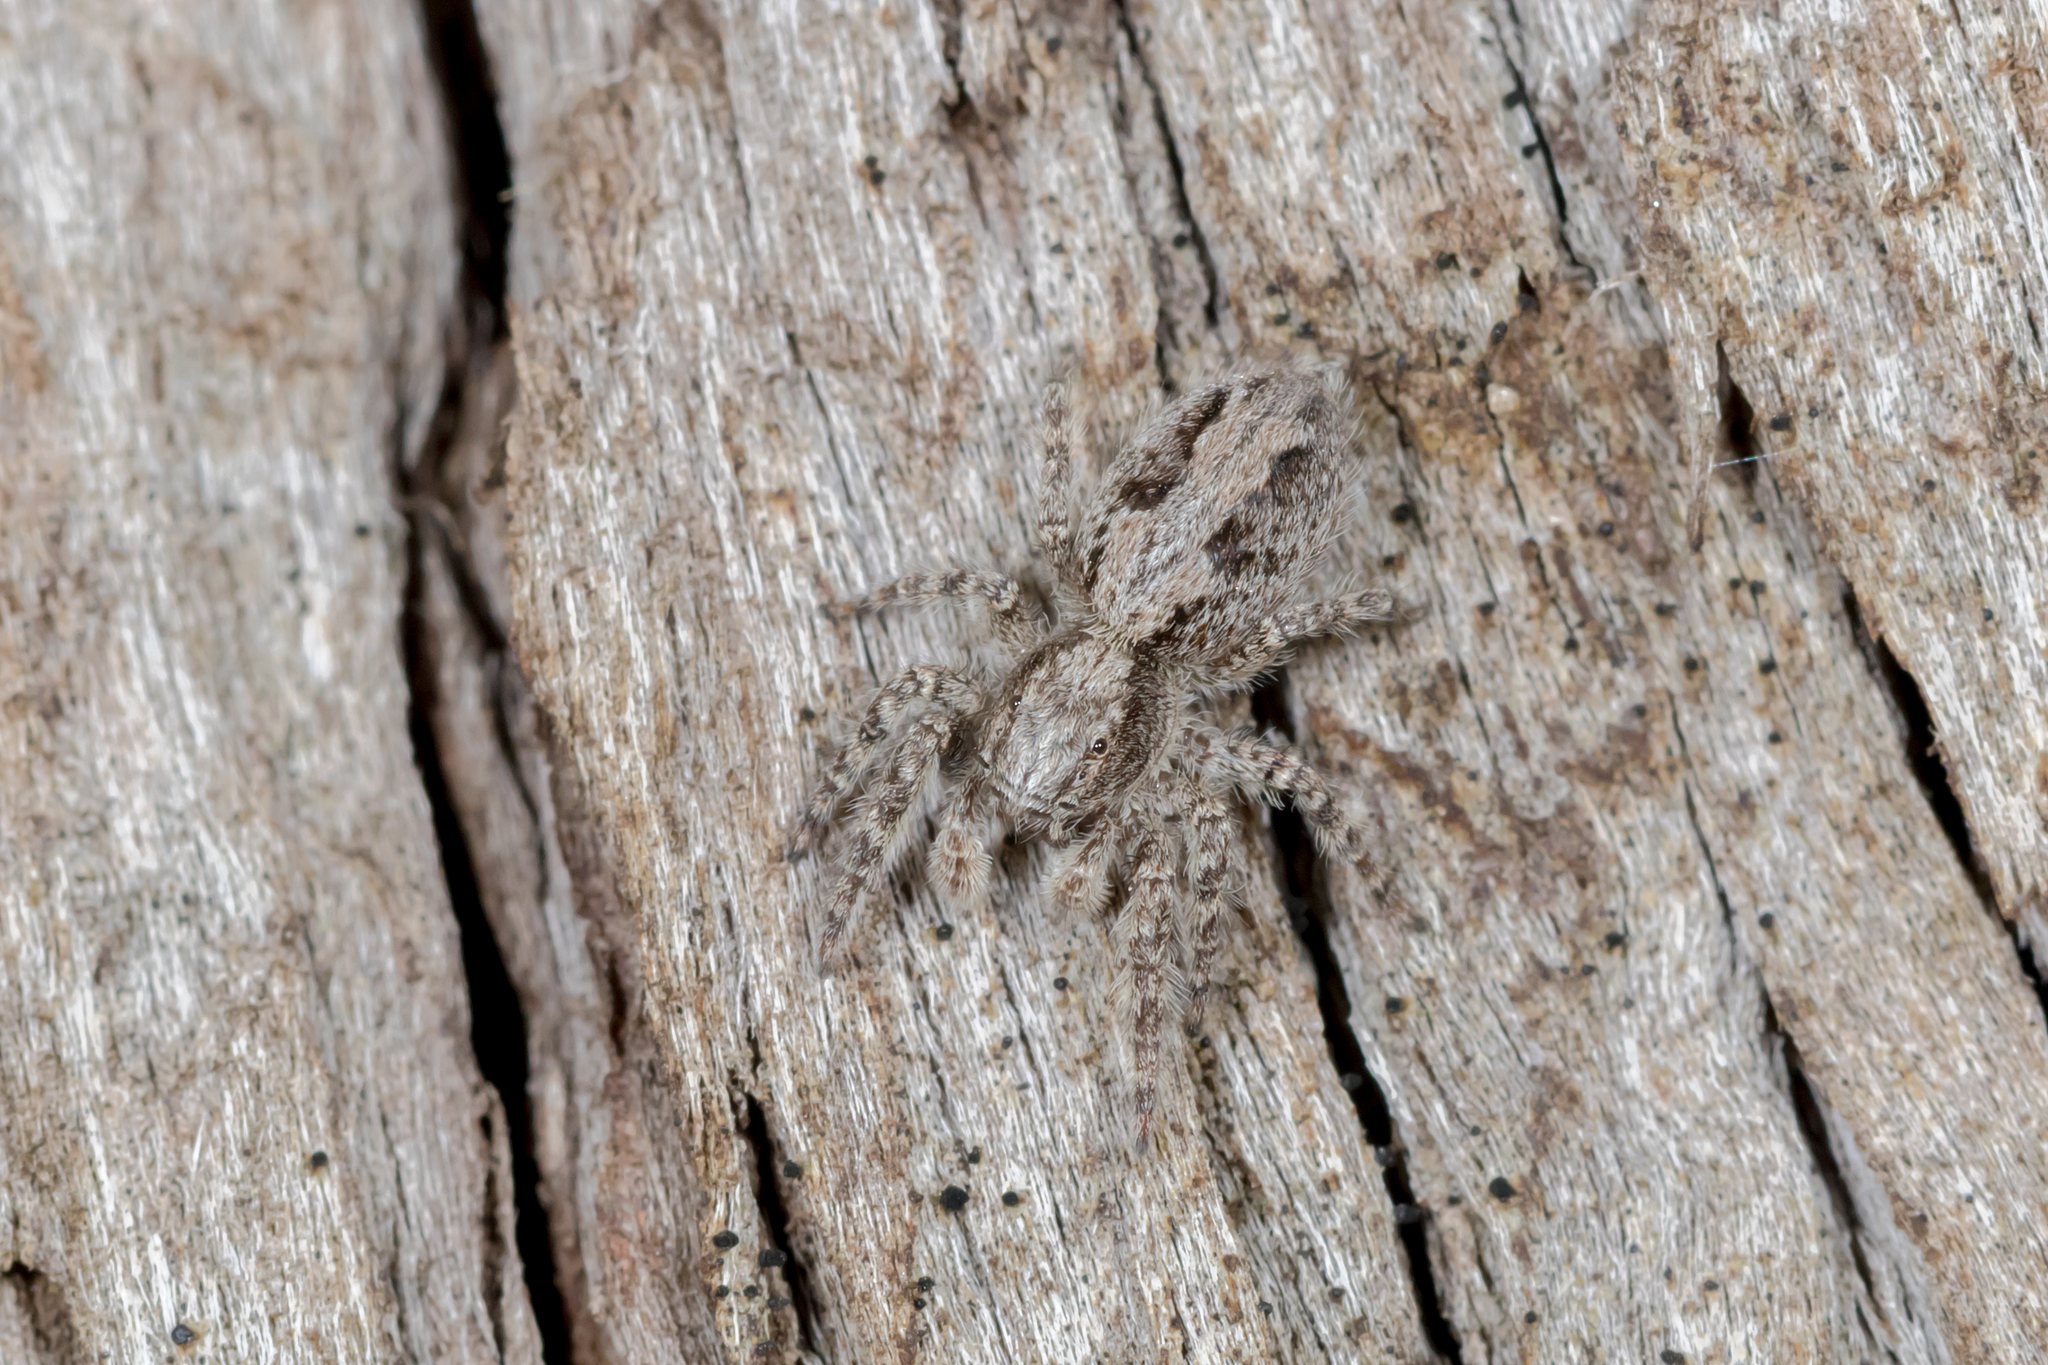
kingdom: Animalia
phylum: Arthropoda
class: Arachnida
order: Araneae
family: Salticidae
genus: Clynotis
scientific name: Clynotis severus
